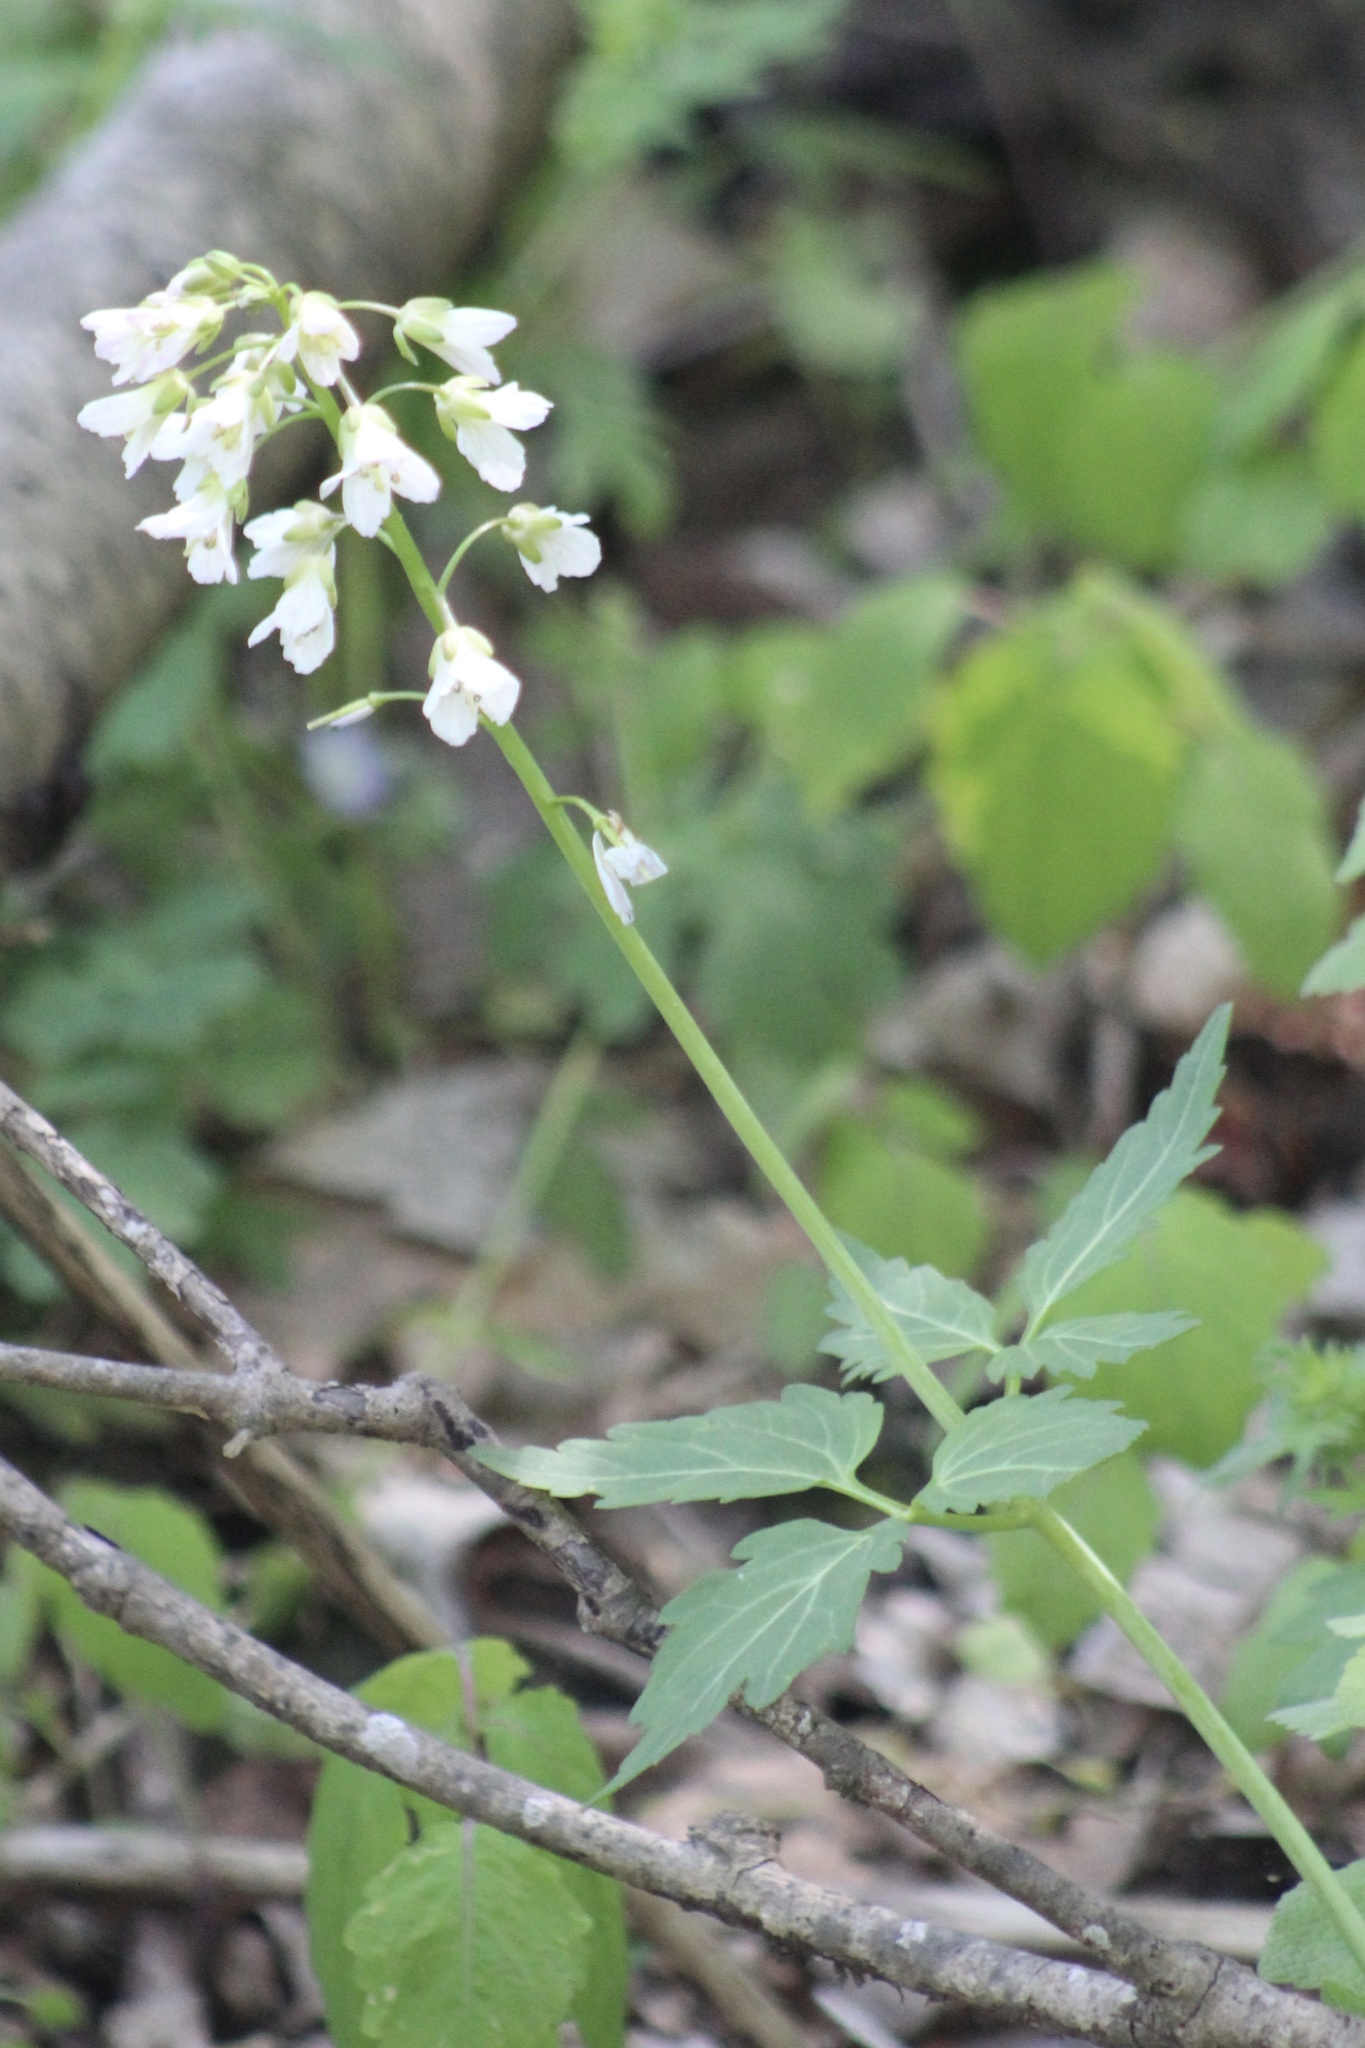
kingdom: Plantae
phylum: Tracheophyta
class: Magnoliopsida
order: Brassicales
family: Brassicaceae
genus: Cardamine
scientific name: Cardamine diphylla
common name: Broad-leaved toothwort
